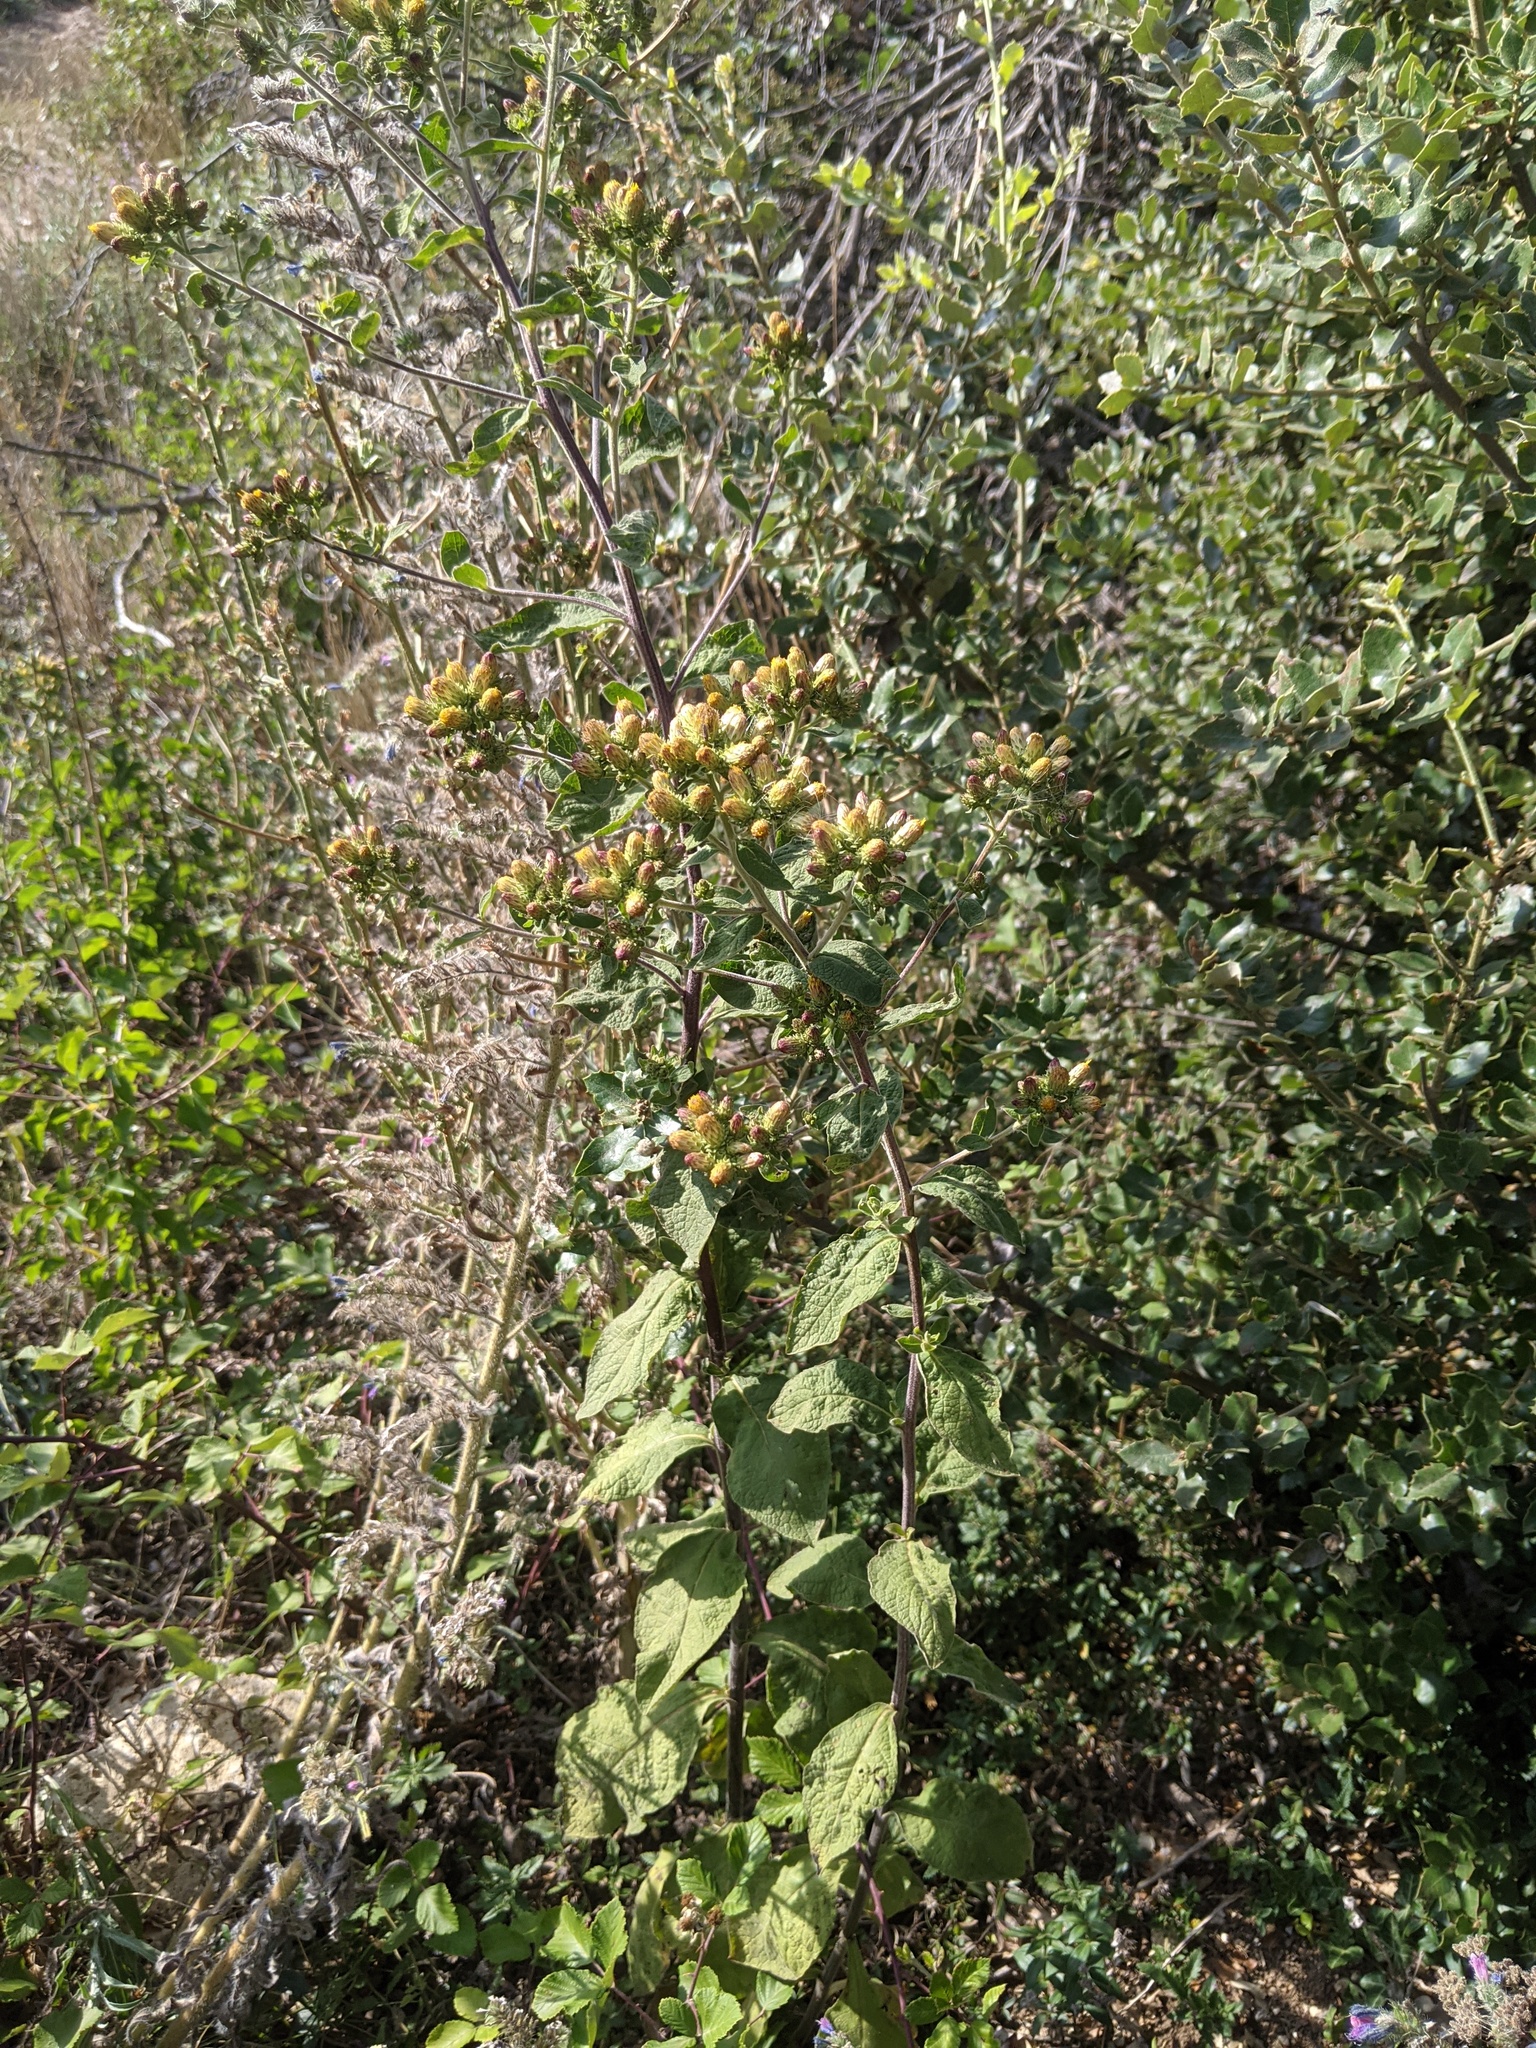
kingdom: Plantae
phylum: Tracheophyta
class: Magnoliopsida
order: Asterales
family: Asteraceae
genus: Pentanema
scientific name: Pentanema squarrosum
